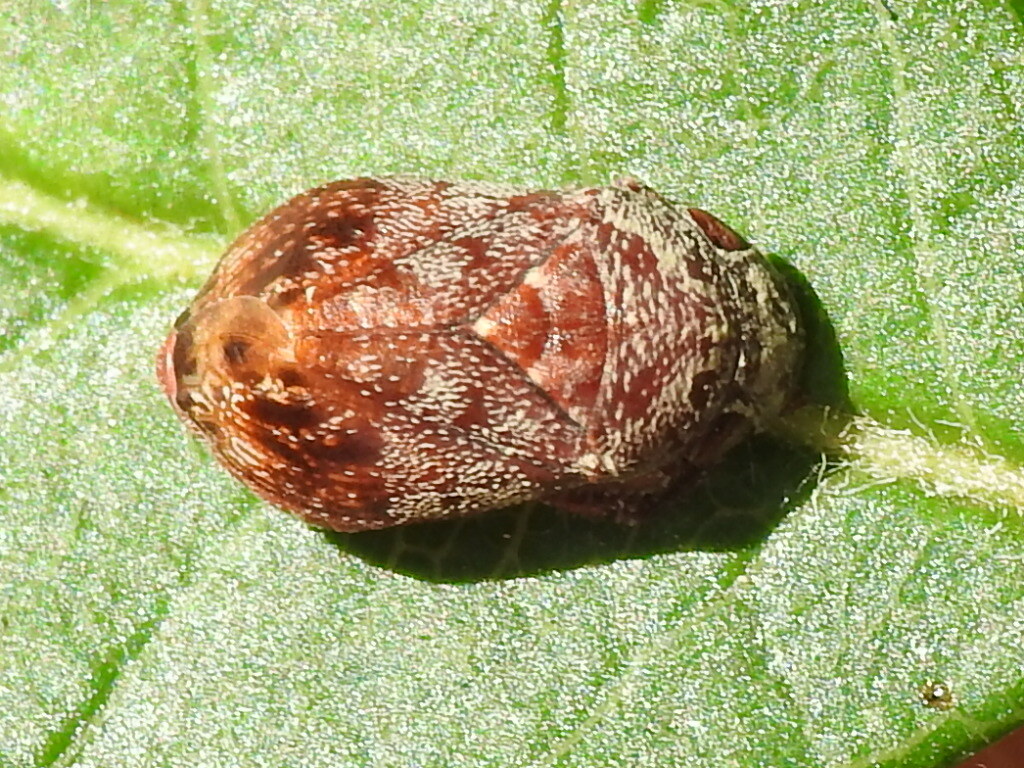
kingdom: Animalia
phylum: Arthropoda
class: Insecta
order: Hemiptera
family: Cicadellidae
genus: Penthimia
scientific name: Penthimia americana
